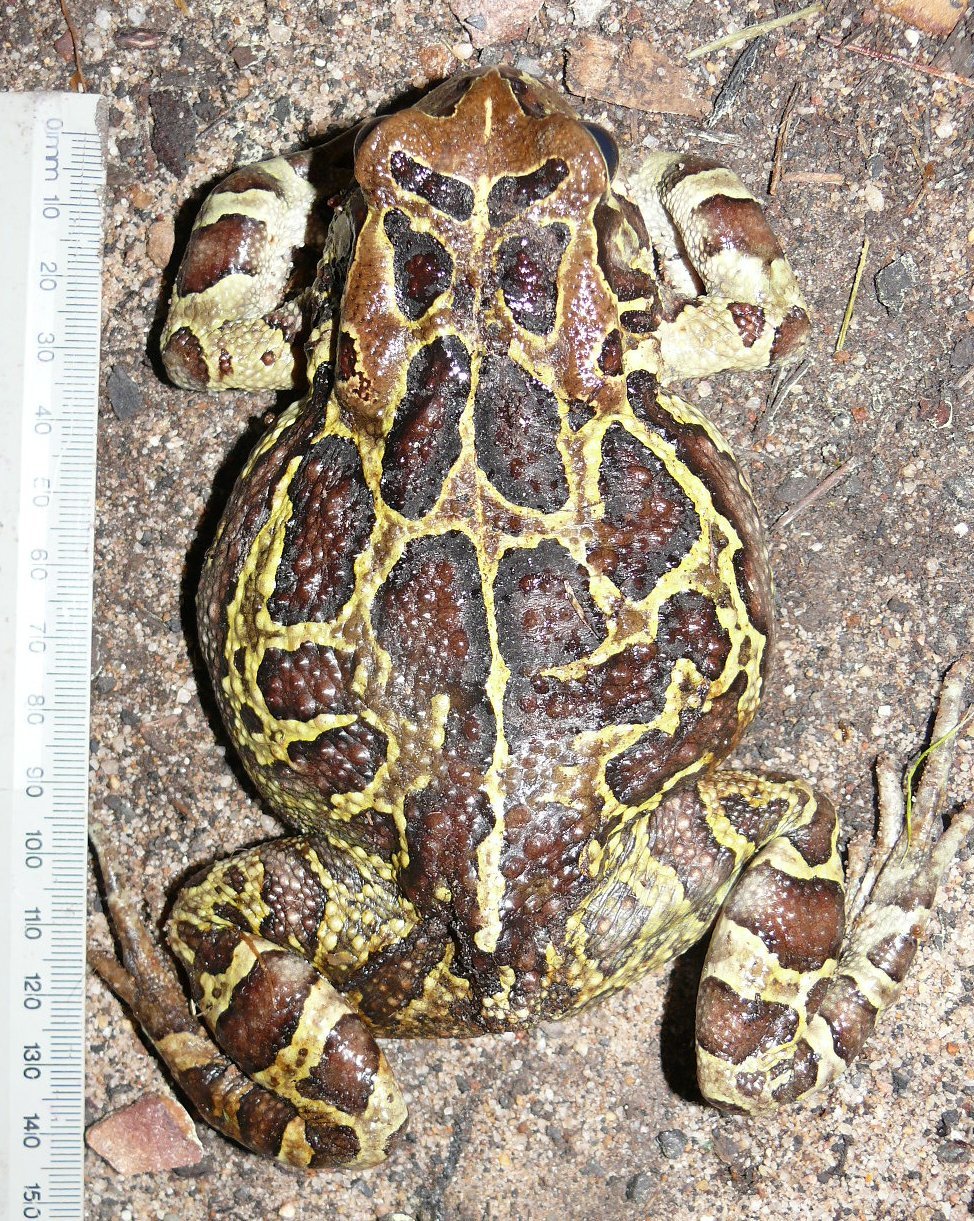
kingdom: Animalia
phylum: Chordata
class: Amphibia
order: Anura
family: Bufonidae
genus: Sclerophrys
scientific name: Sclerophrys pantherina
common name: Panther toad
